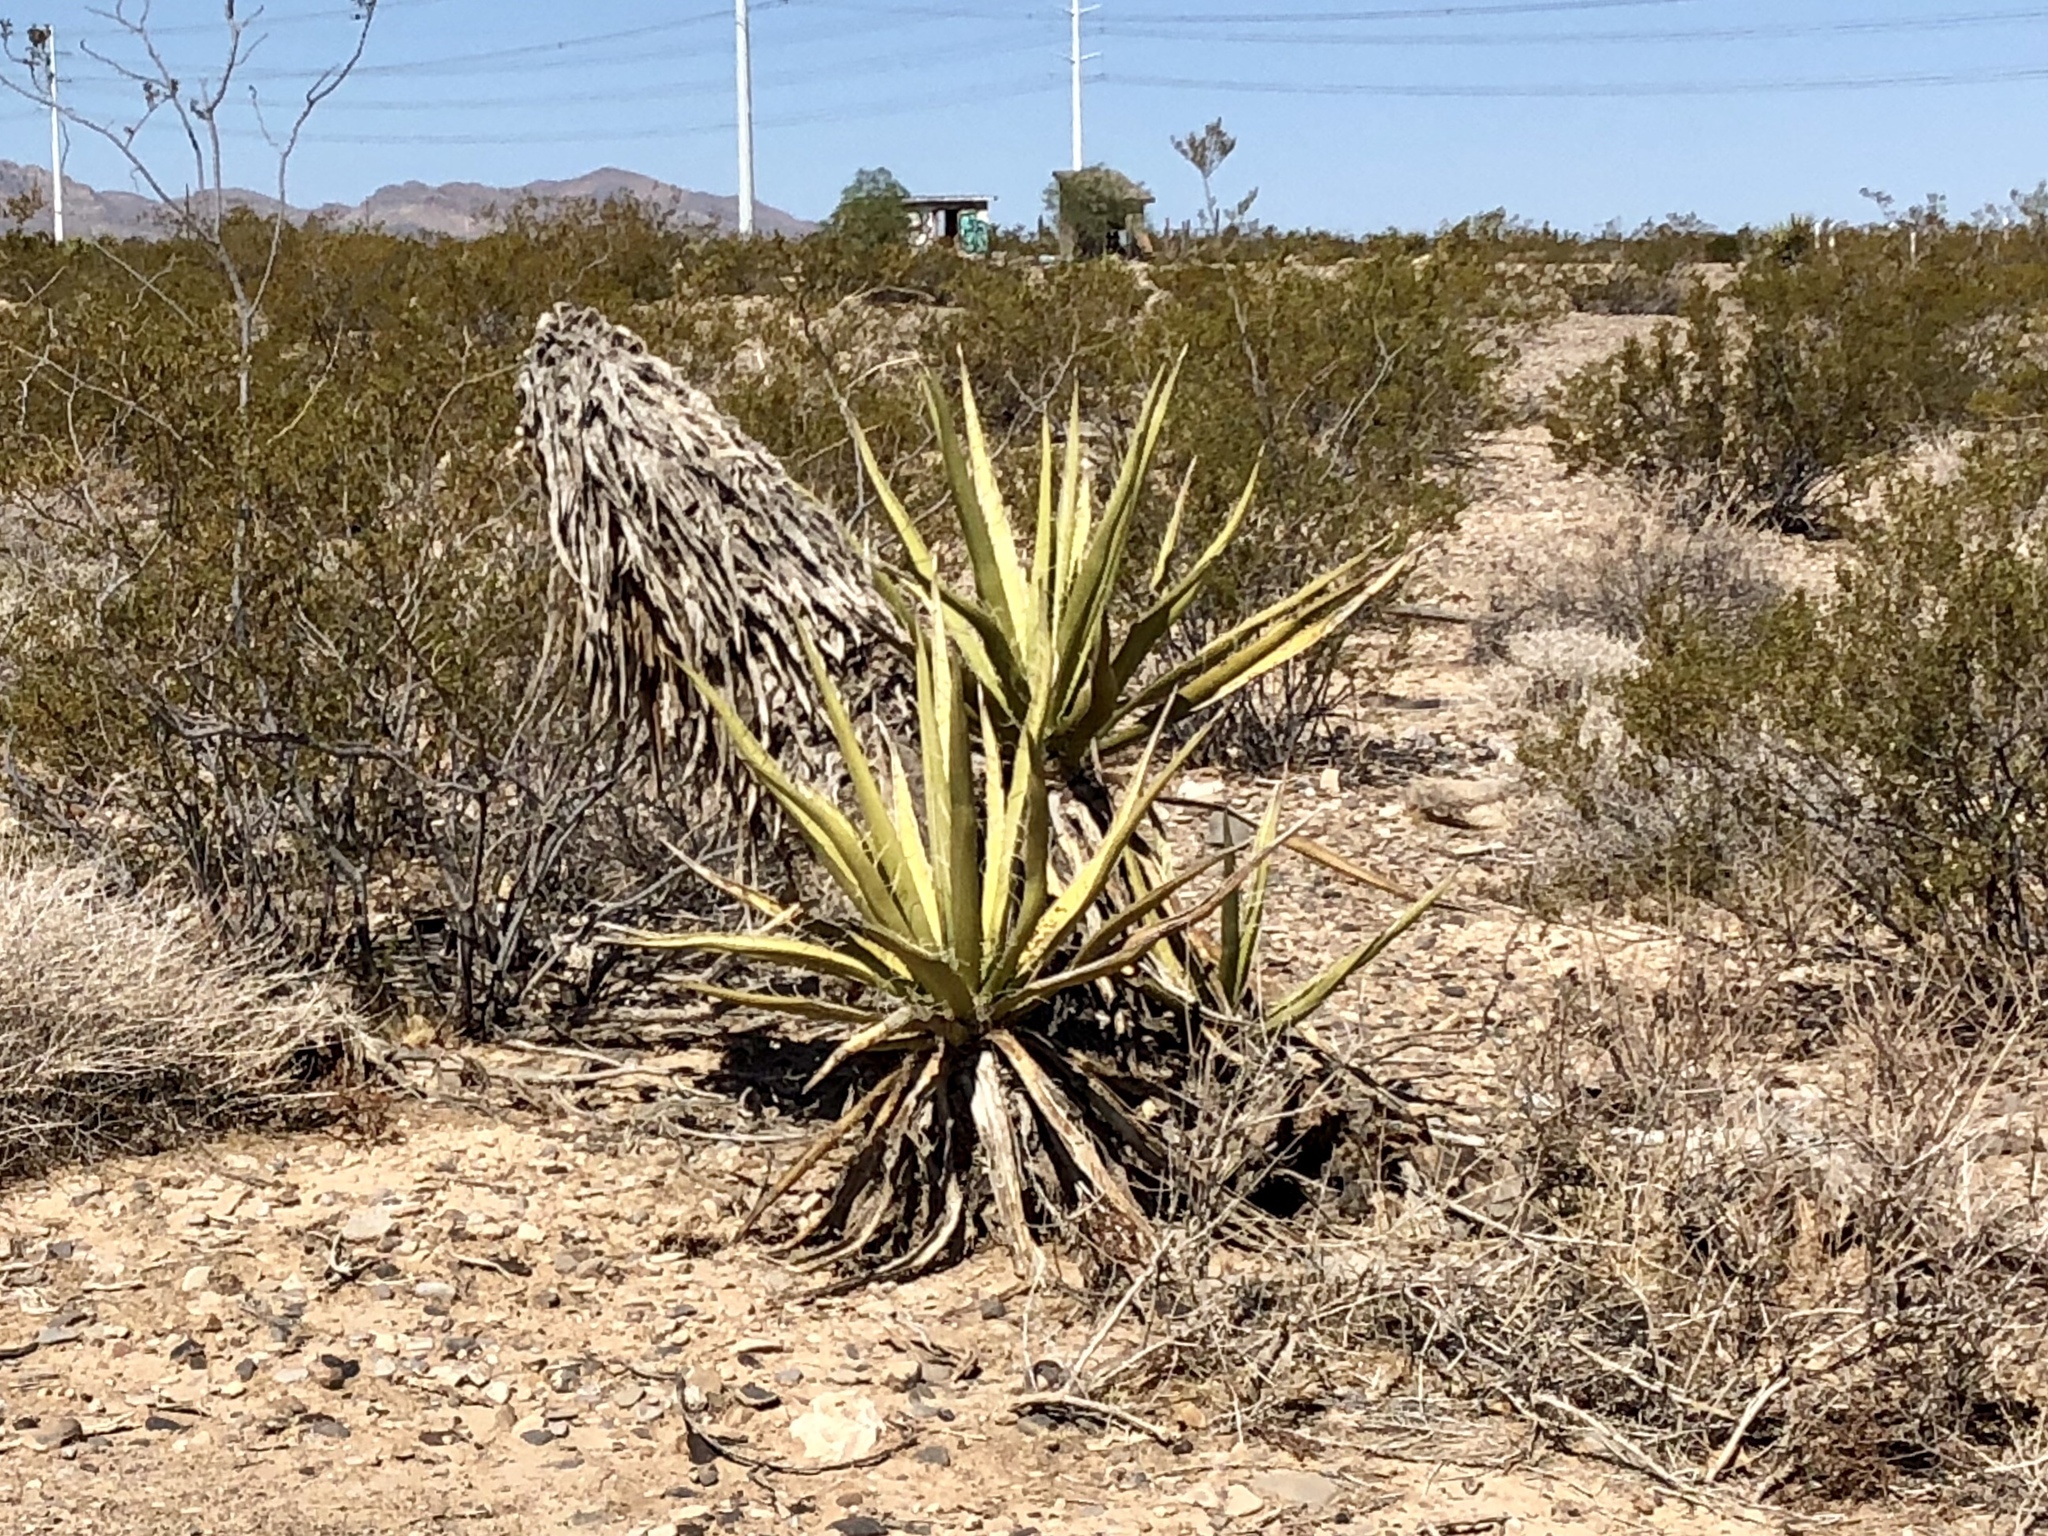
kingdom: Plantae
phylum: Tracheophyta
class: Liliopsida
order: Asparagales
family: Asparagaceae
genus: Yucca
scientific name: Yucca schidigera
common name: Mojave yucca
